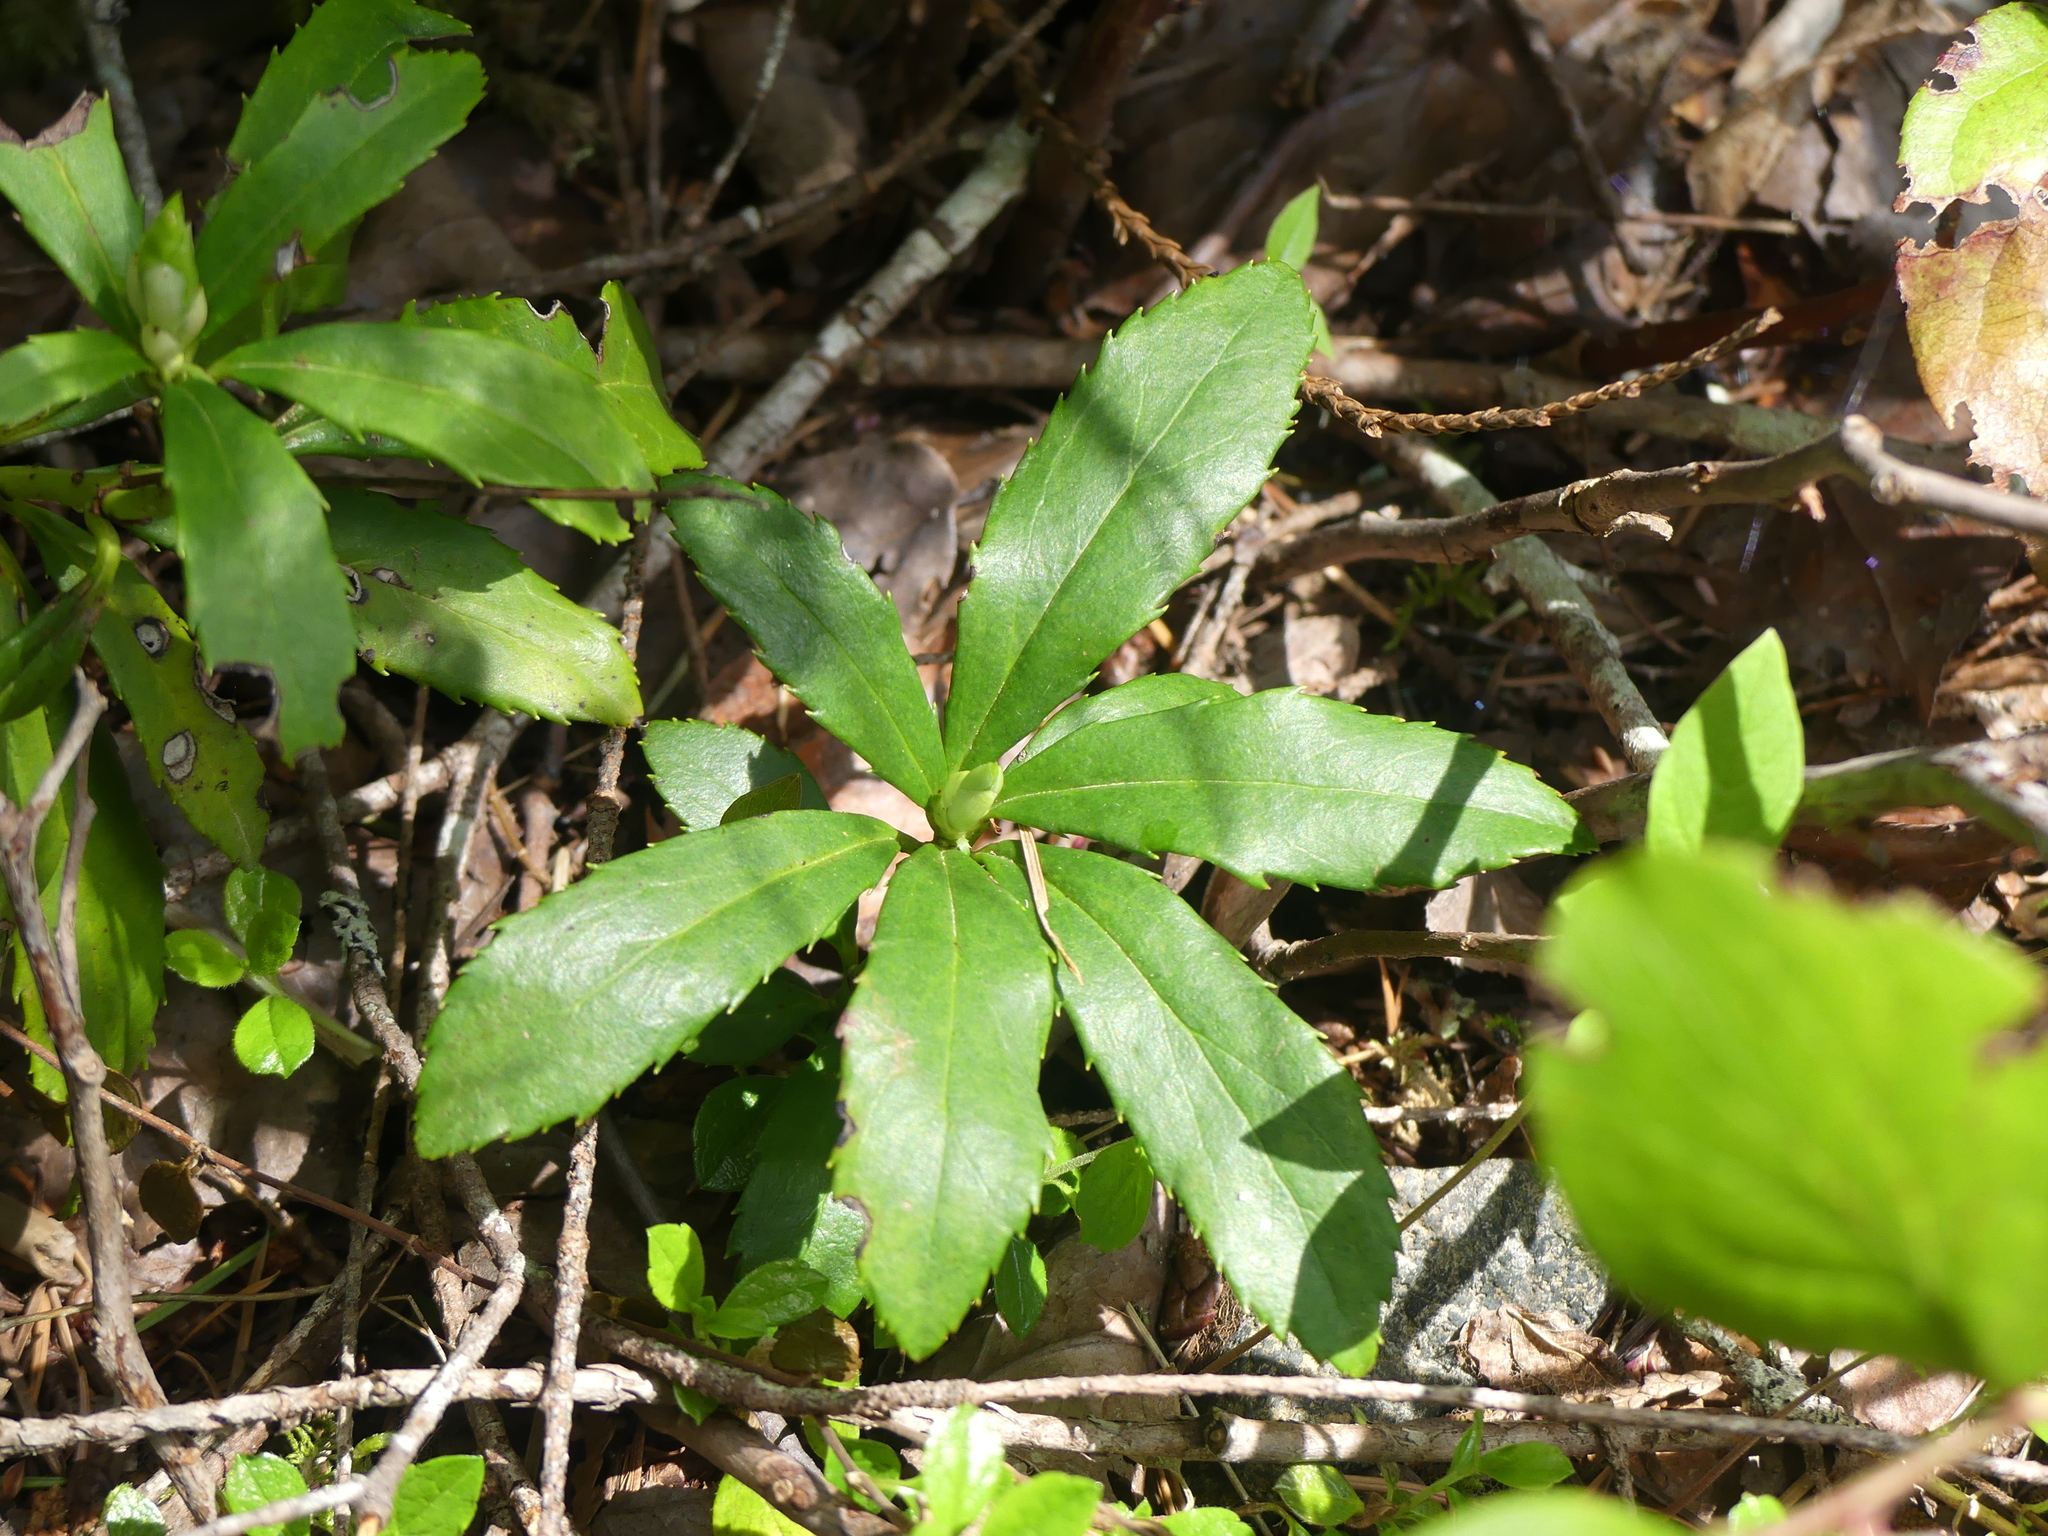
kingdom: Plantae
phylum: Tracheophyta
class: Magnoliopsida
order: Ericales
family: Ericaceae
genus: Chimaphila
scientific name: Chimaphila umbellata
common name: Pipsissewa
